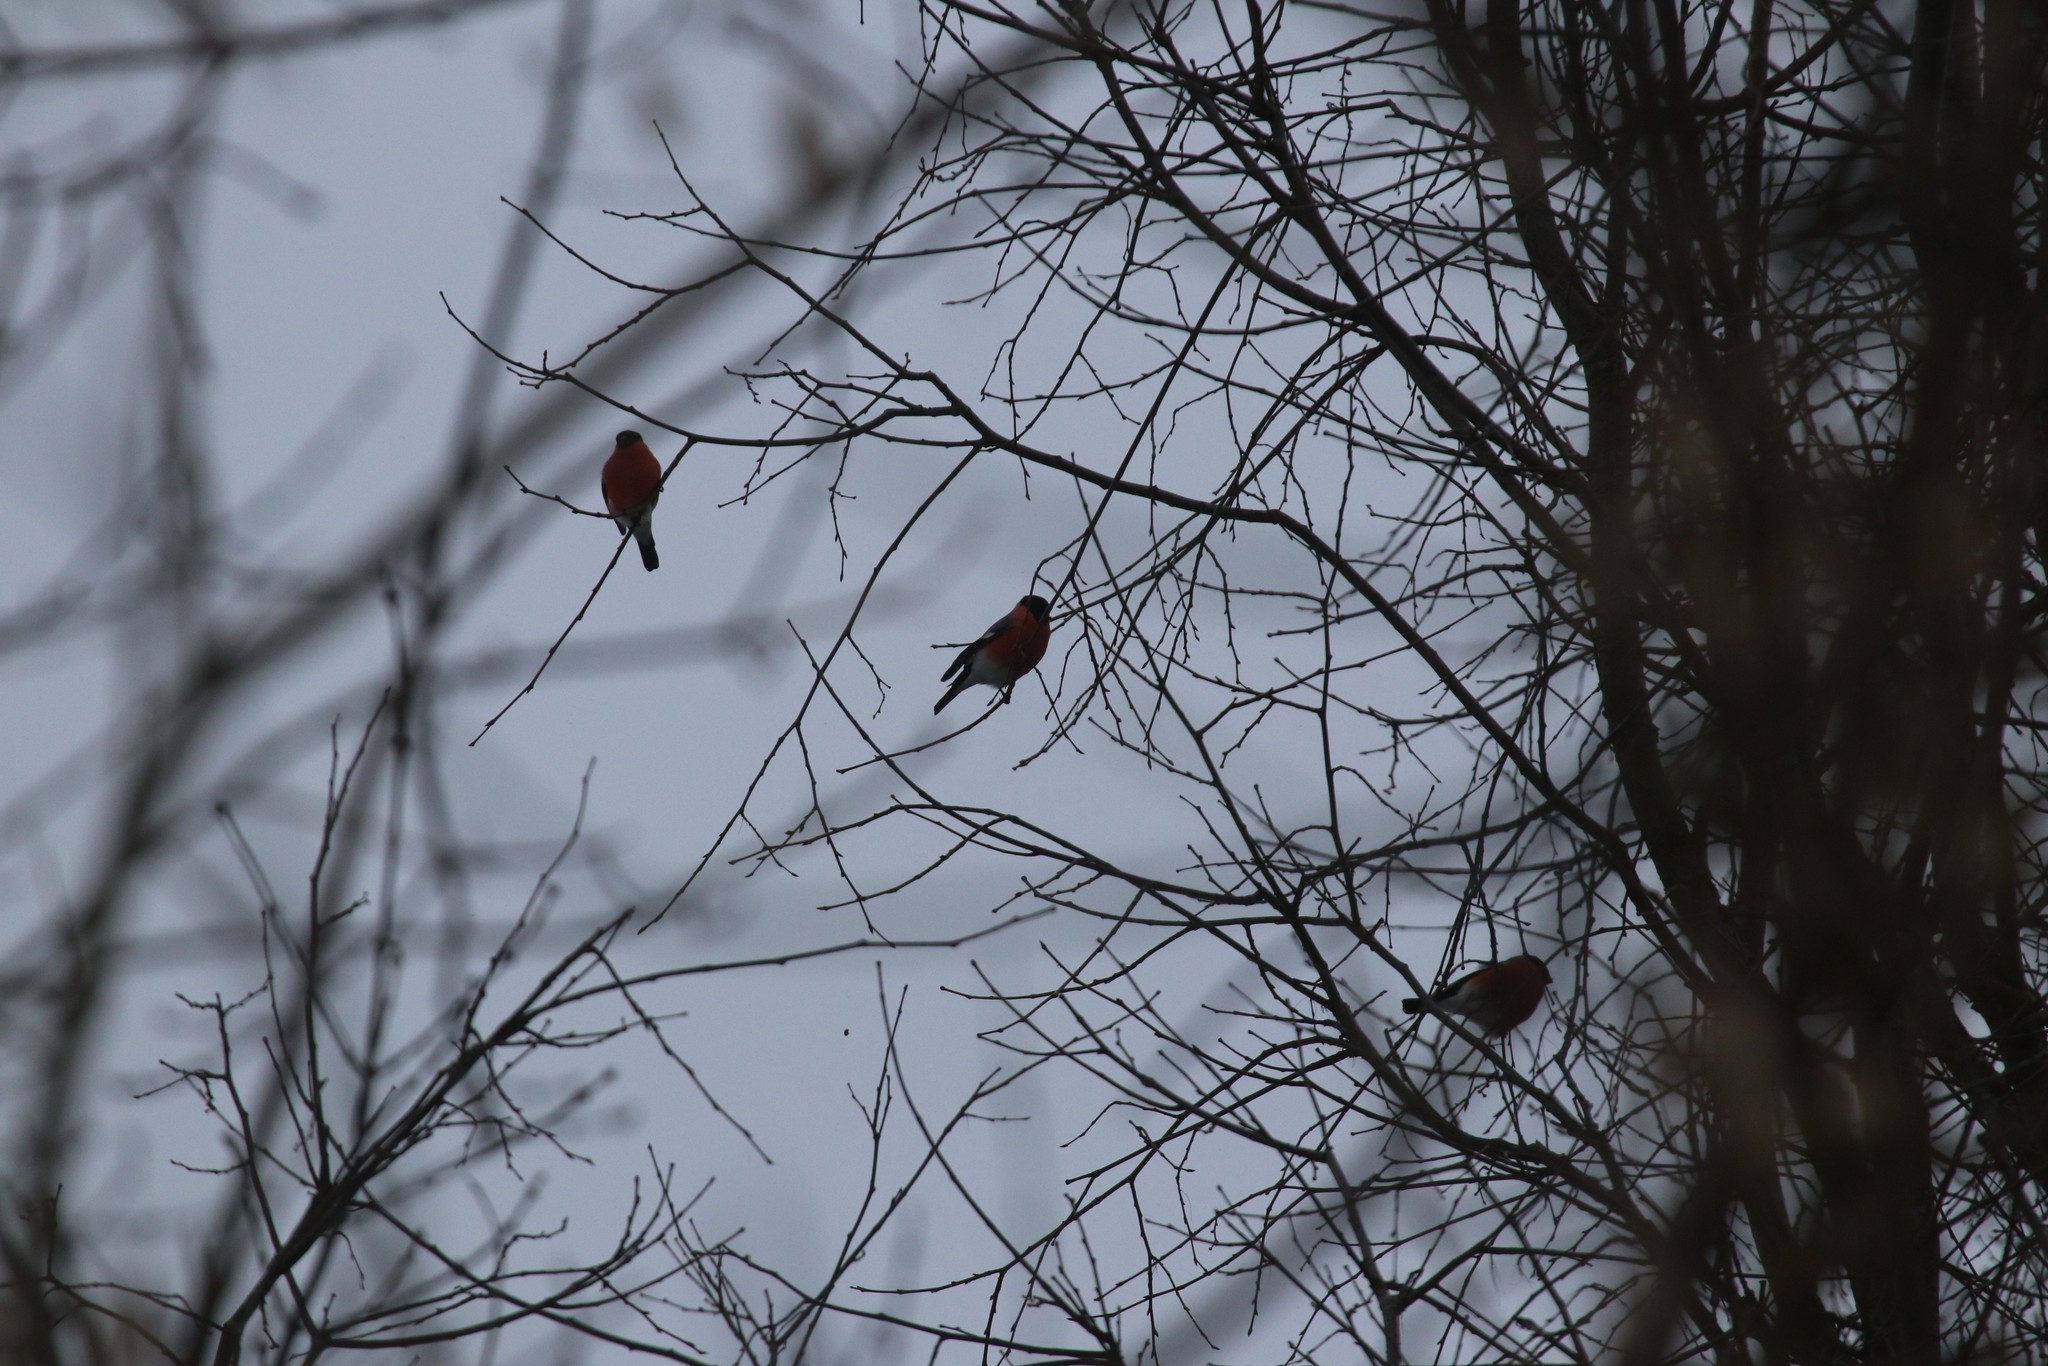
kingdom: Animalia
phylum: Chordata
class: Aves
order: Passeriformes
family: Fringillidae
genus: Pyrrhula
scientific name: Pyrrhula pyrrhula
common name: Eurasian bullfinch
